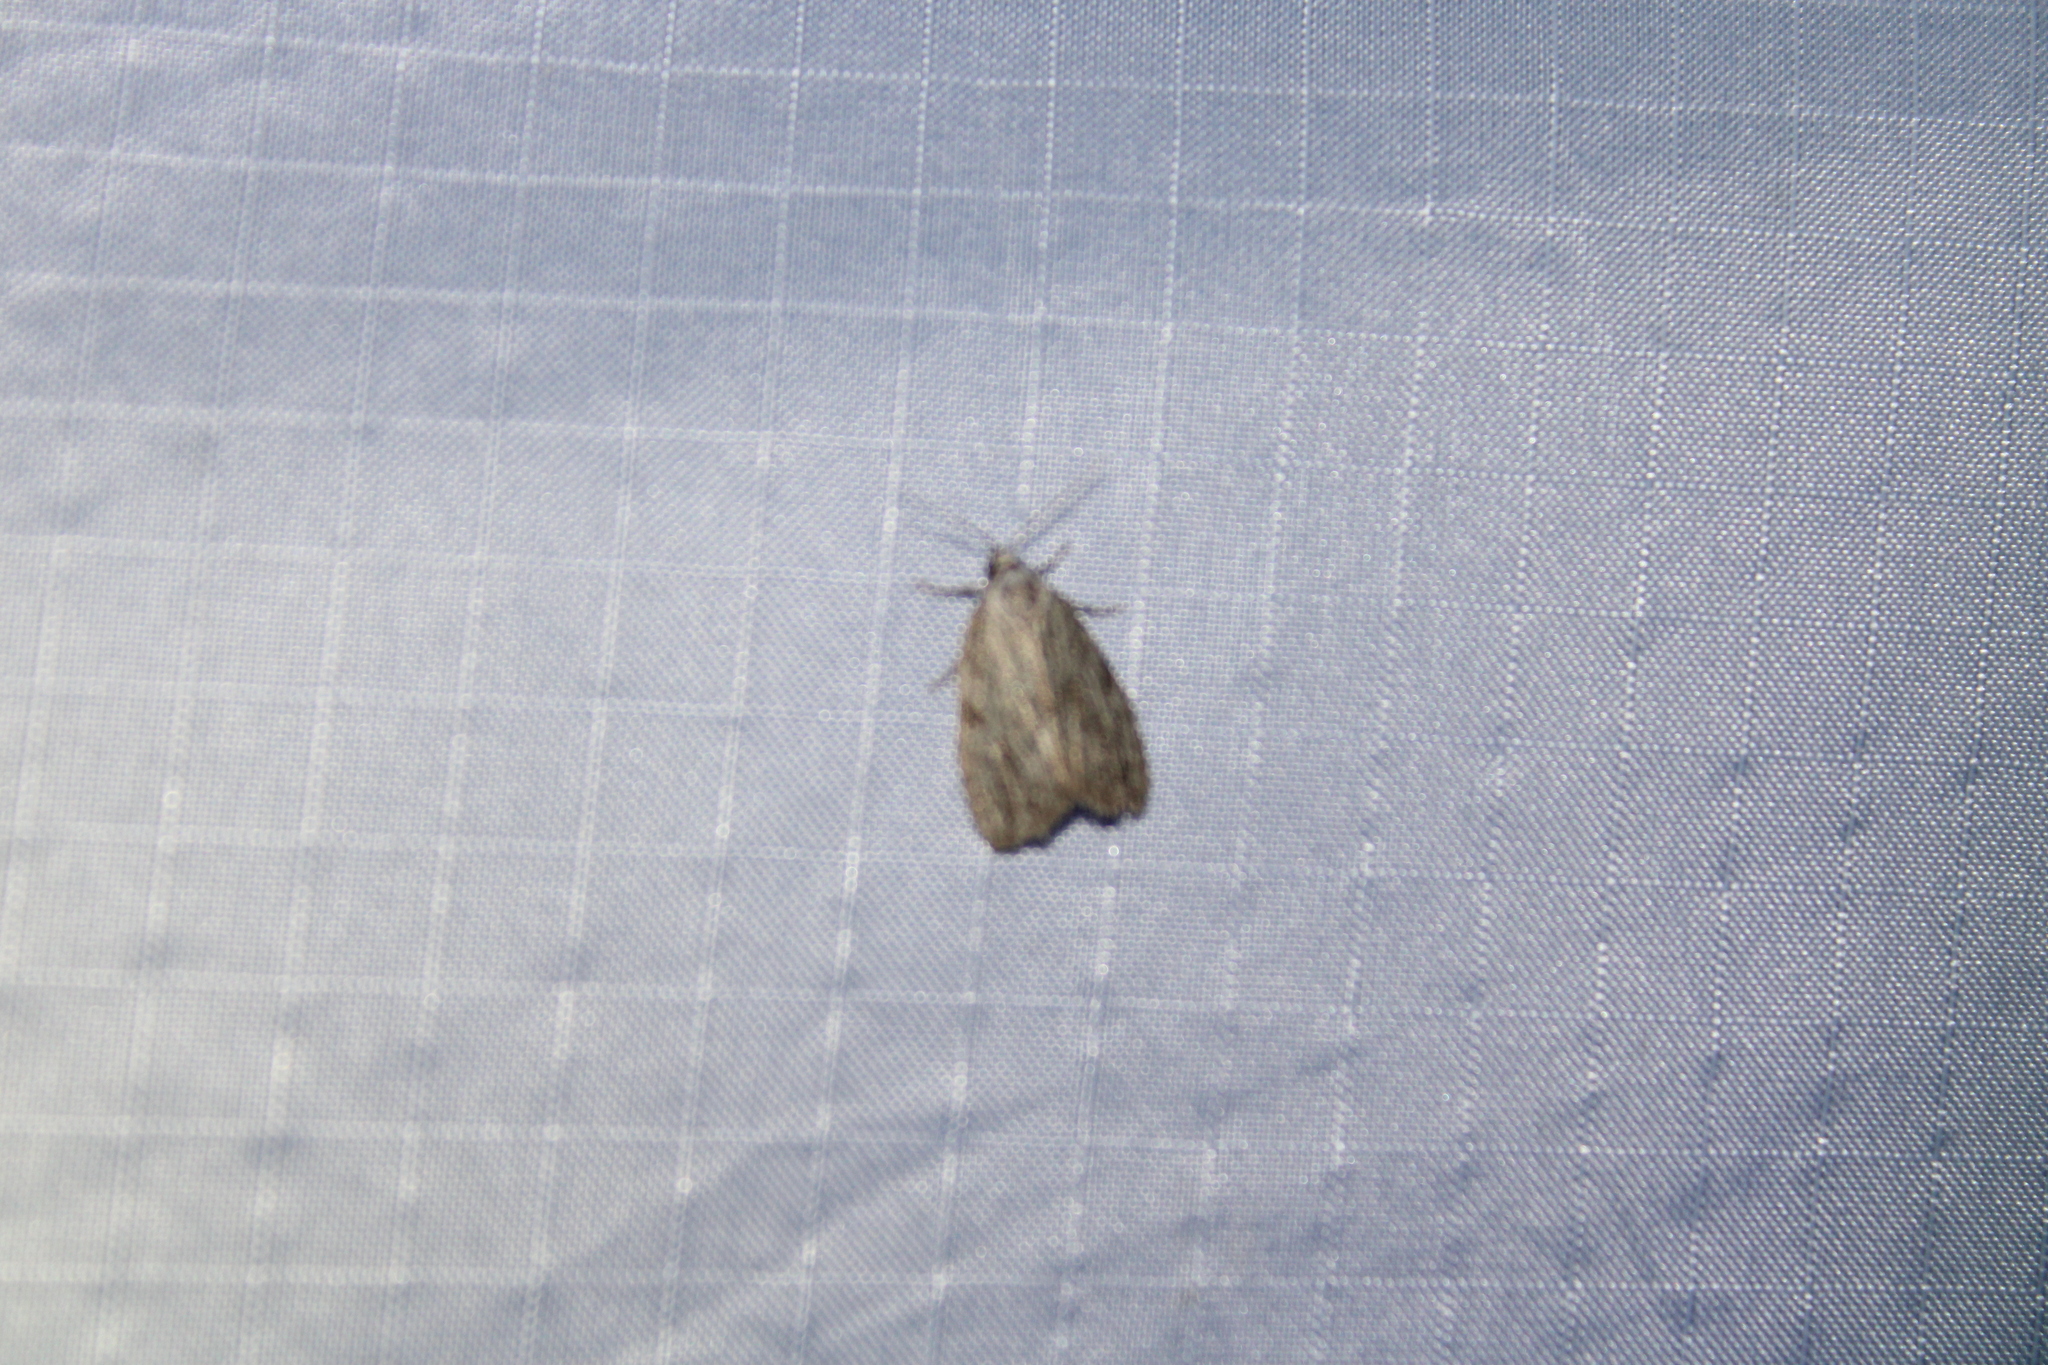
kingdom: Animalia
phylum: Arthropoda
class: Insecta
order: Lepidoptera
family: Noctuidae
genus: Balsa
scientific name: Balsa tristrigella
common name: Three-lined balsa moth
